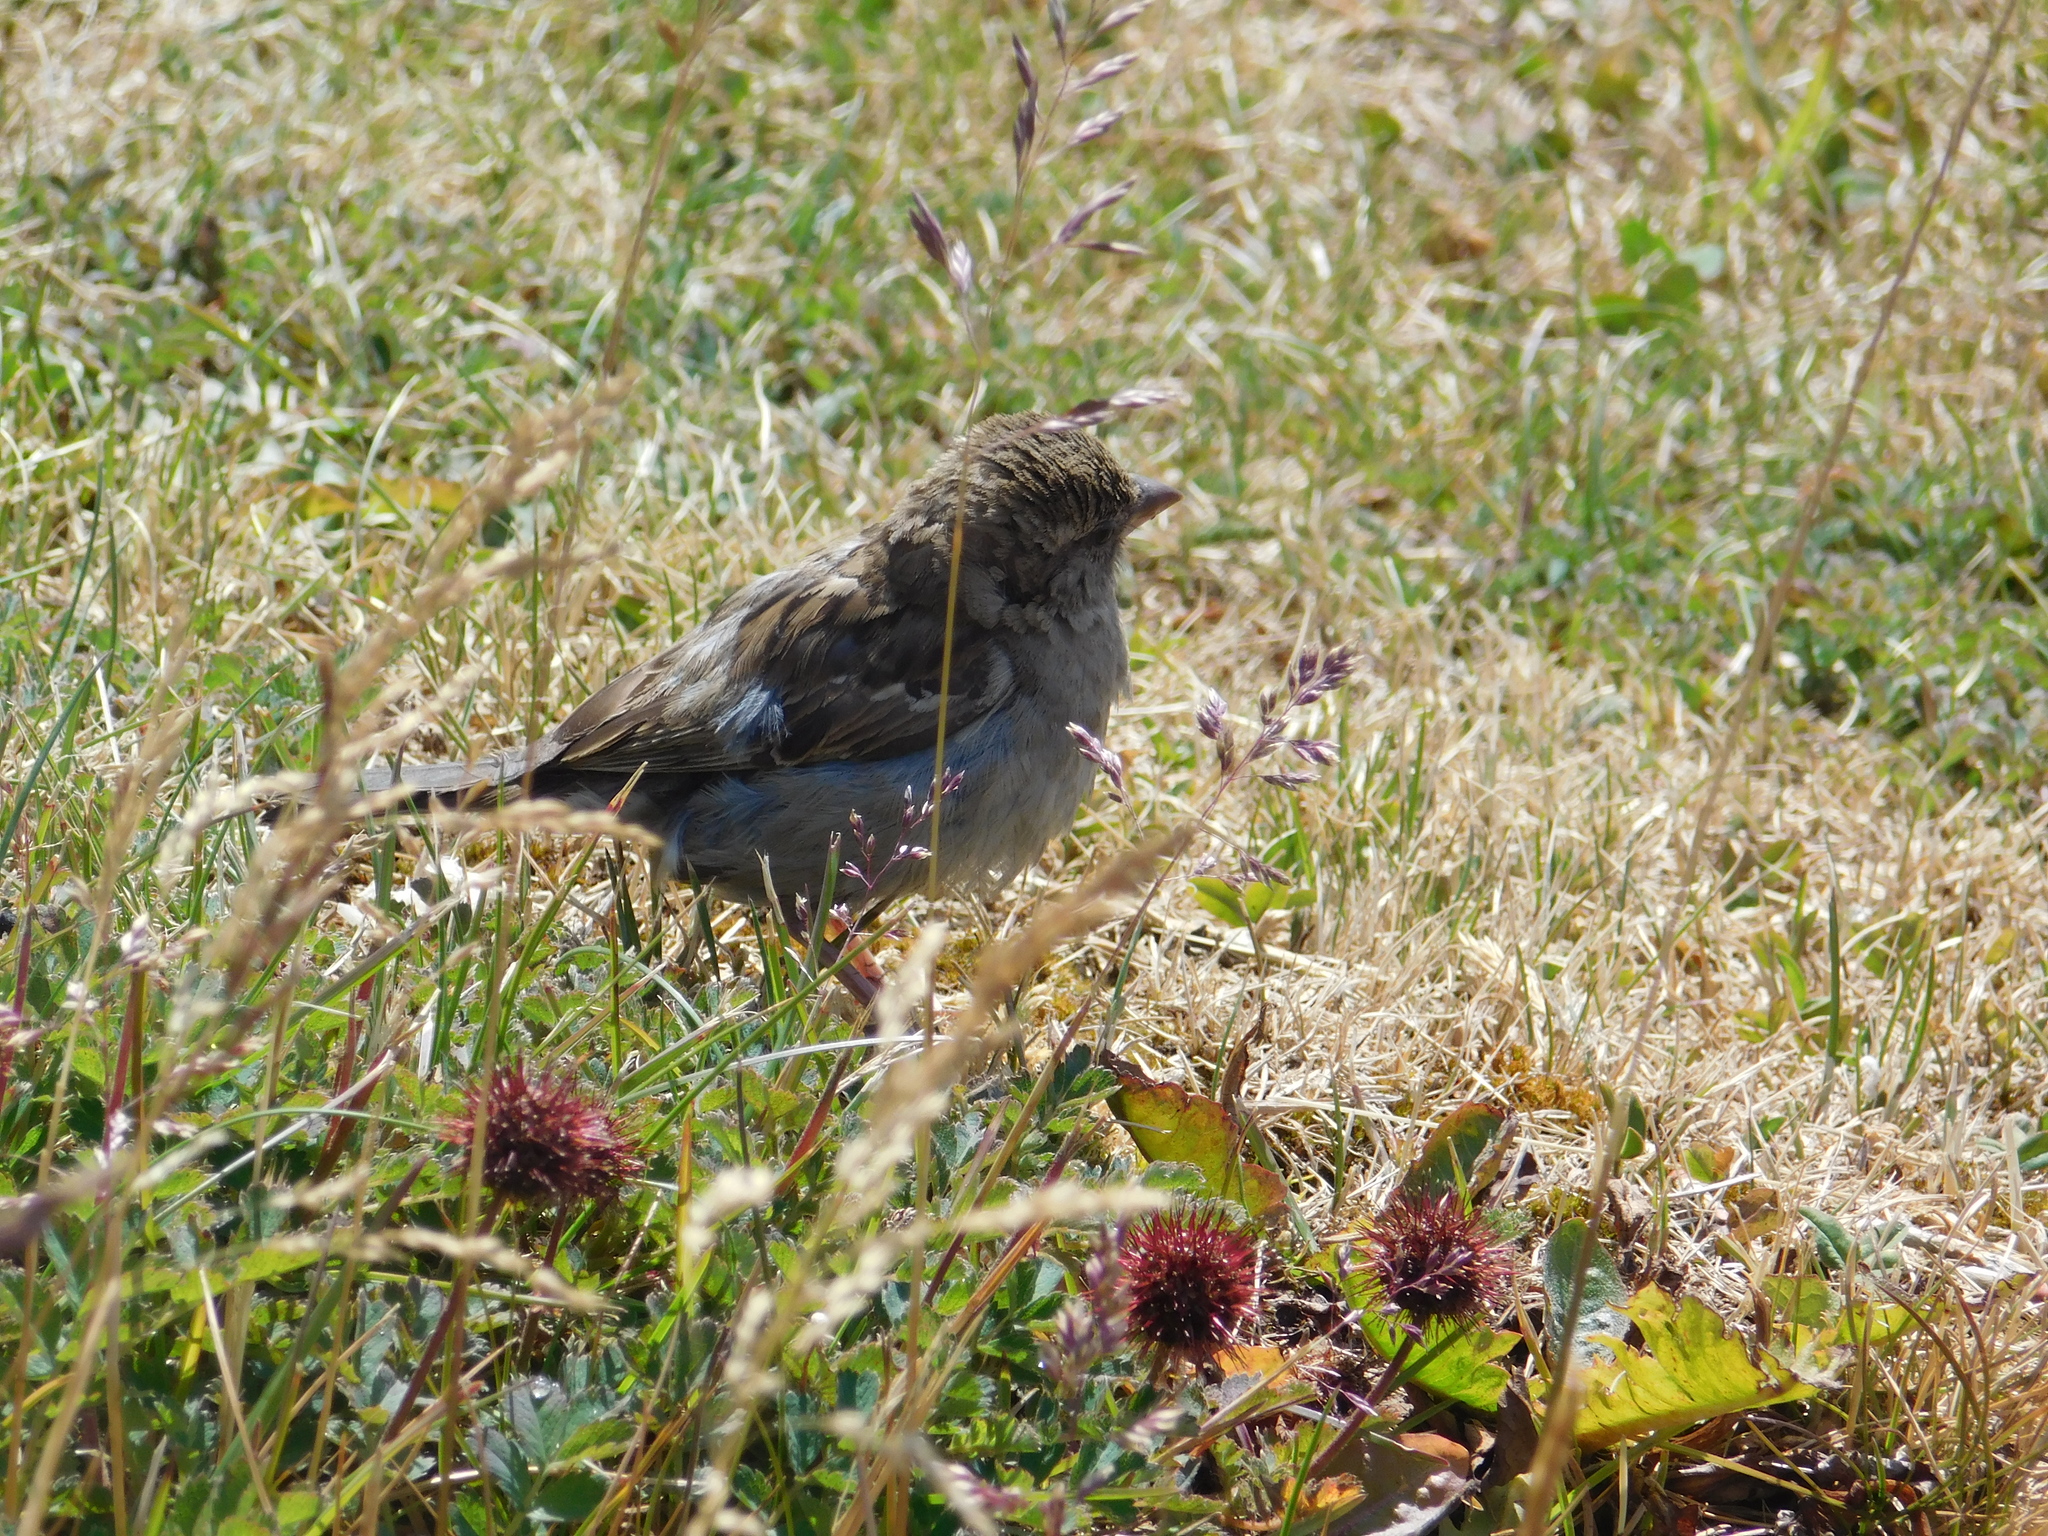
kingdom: Animalia
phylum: Chordata
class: Aves
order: Passeriformes
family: Passeridae
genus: Passer
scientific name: Passer domesticus
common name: House sparrow
